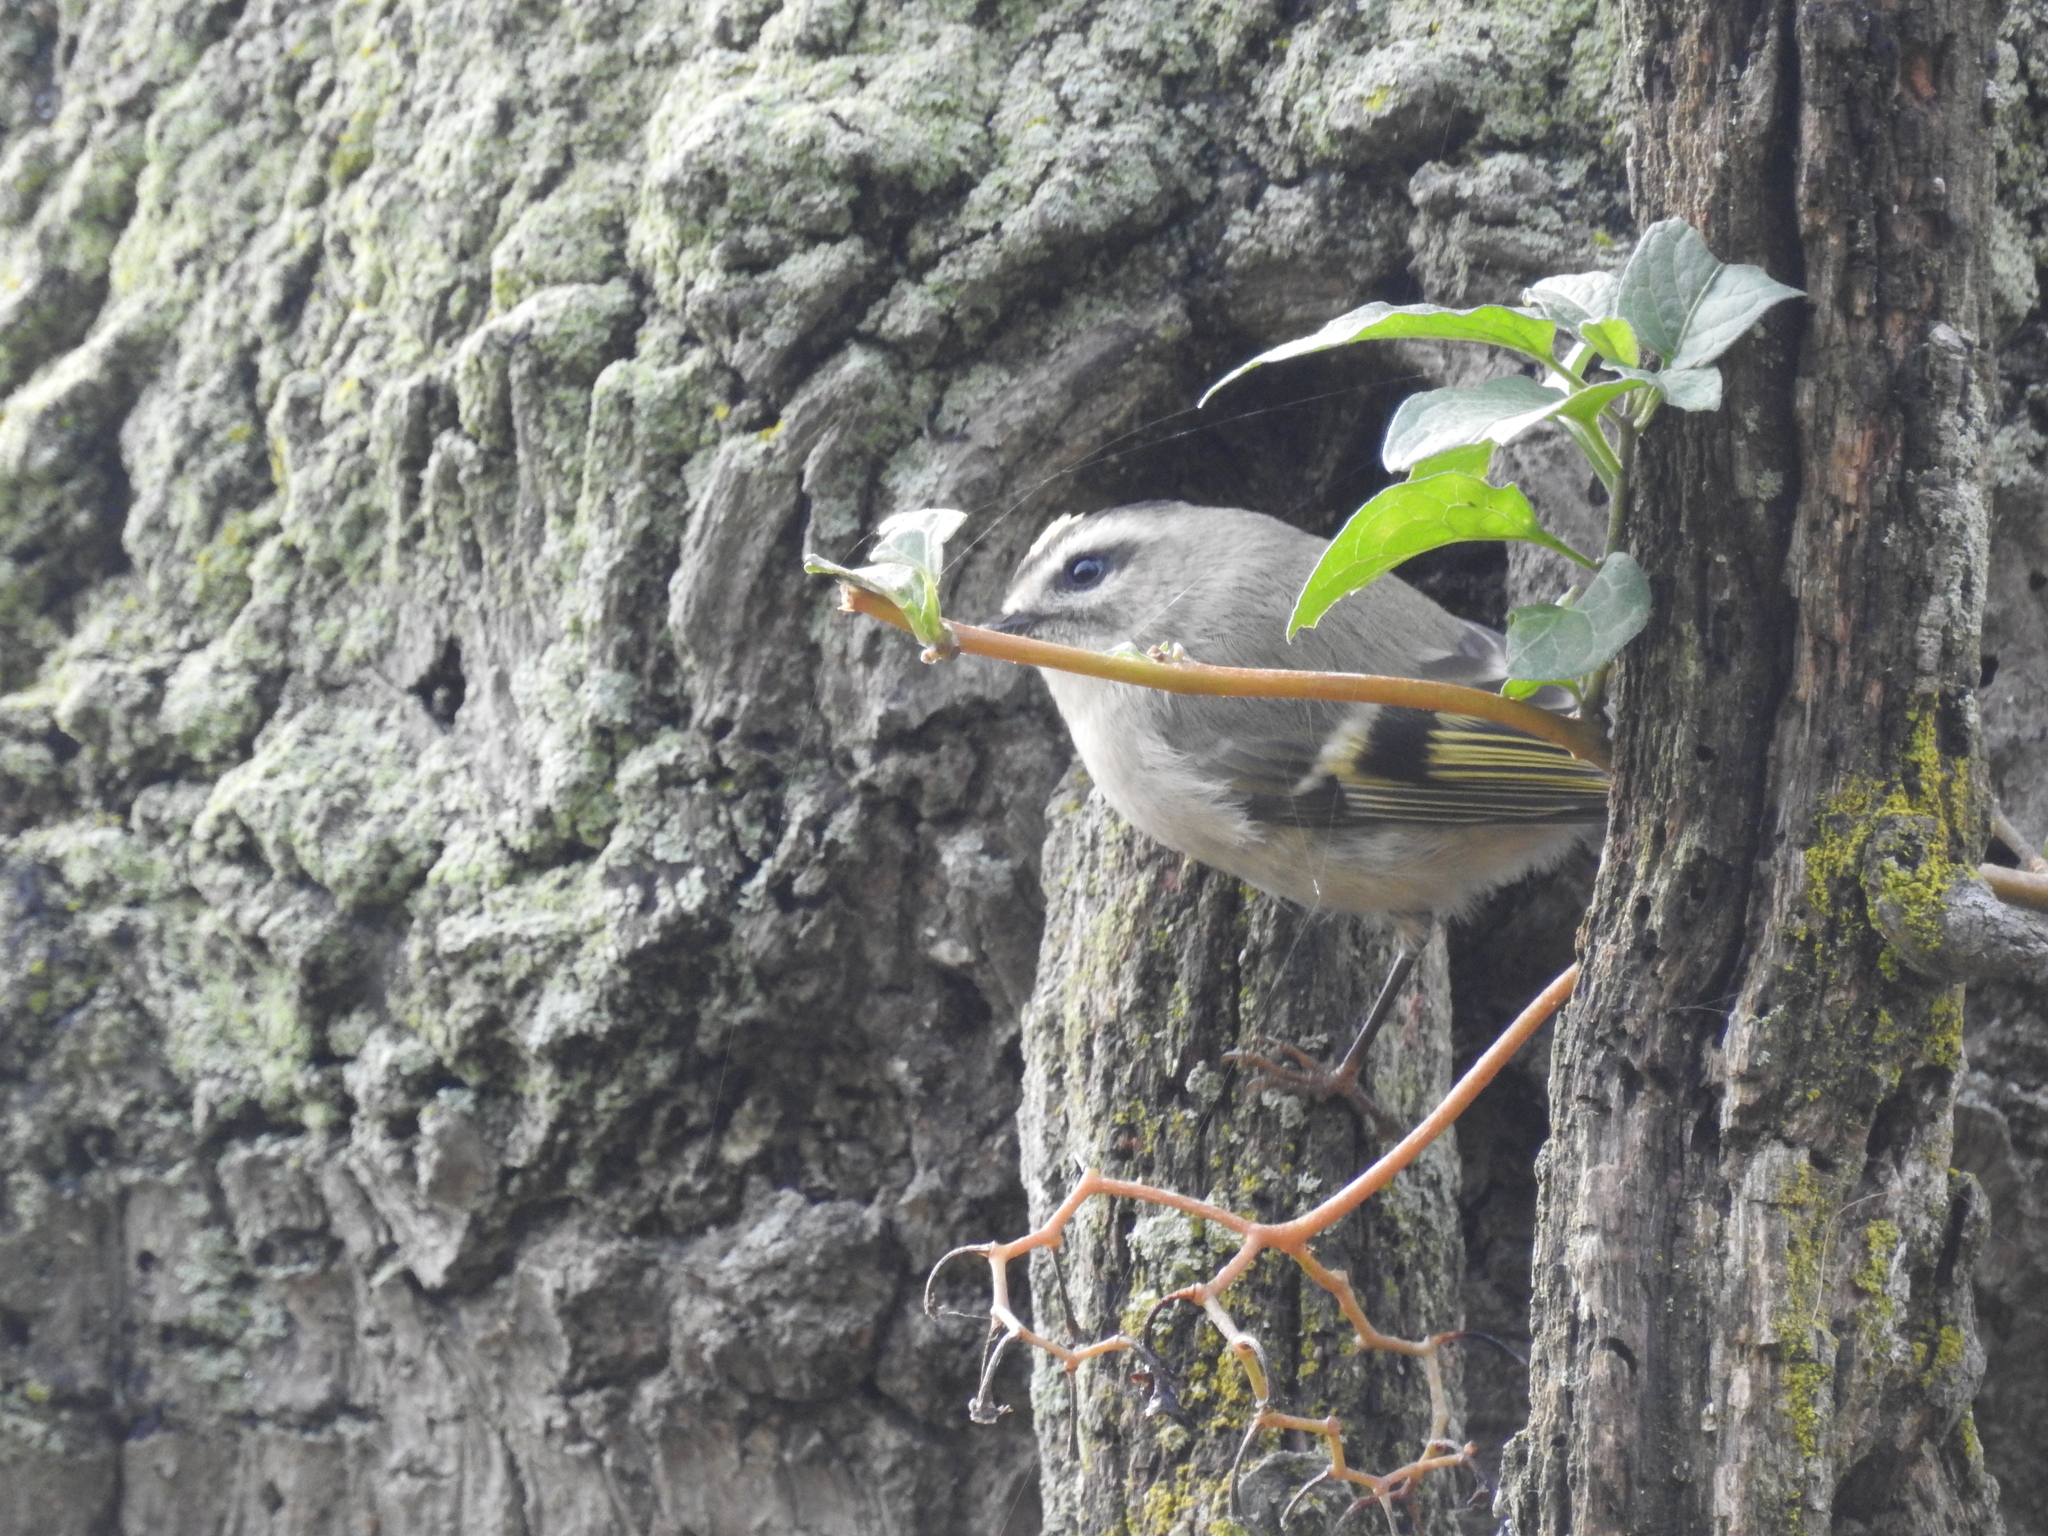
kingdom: Animalia
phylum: Chordata
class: Aves
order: Passeriformes
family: Regulidae
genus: Regulus
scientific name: Regulus satrapa
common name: Golden-crowned kinglet
